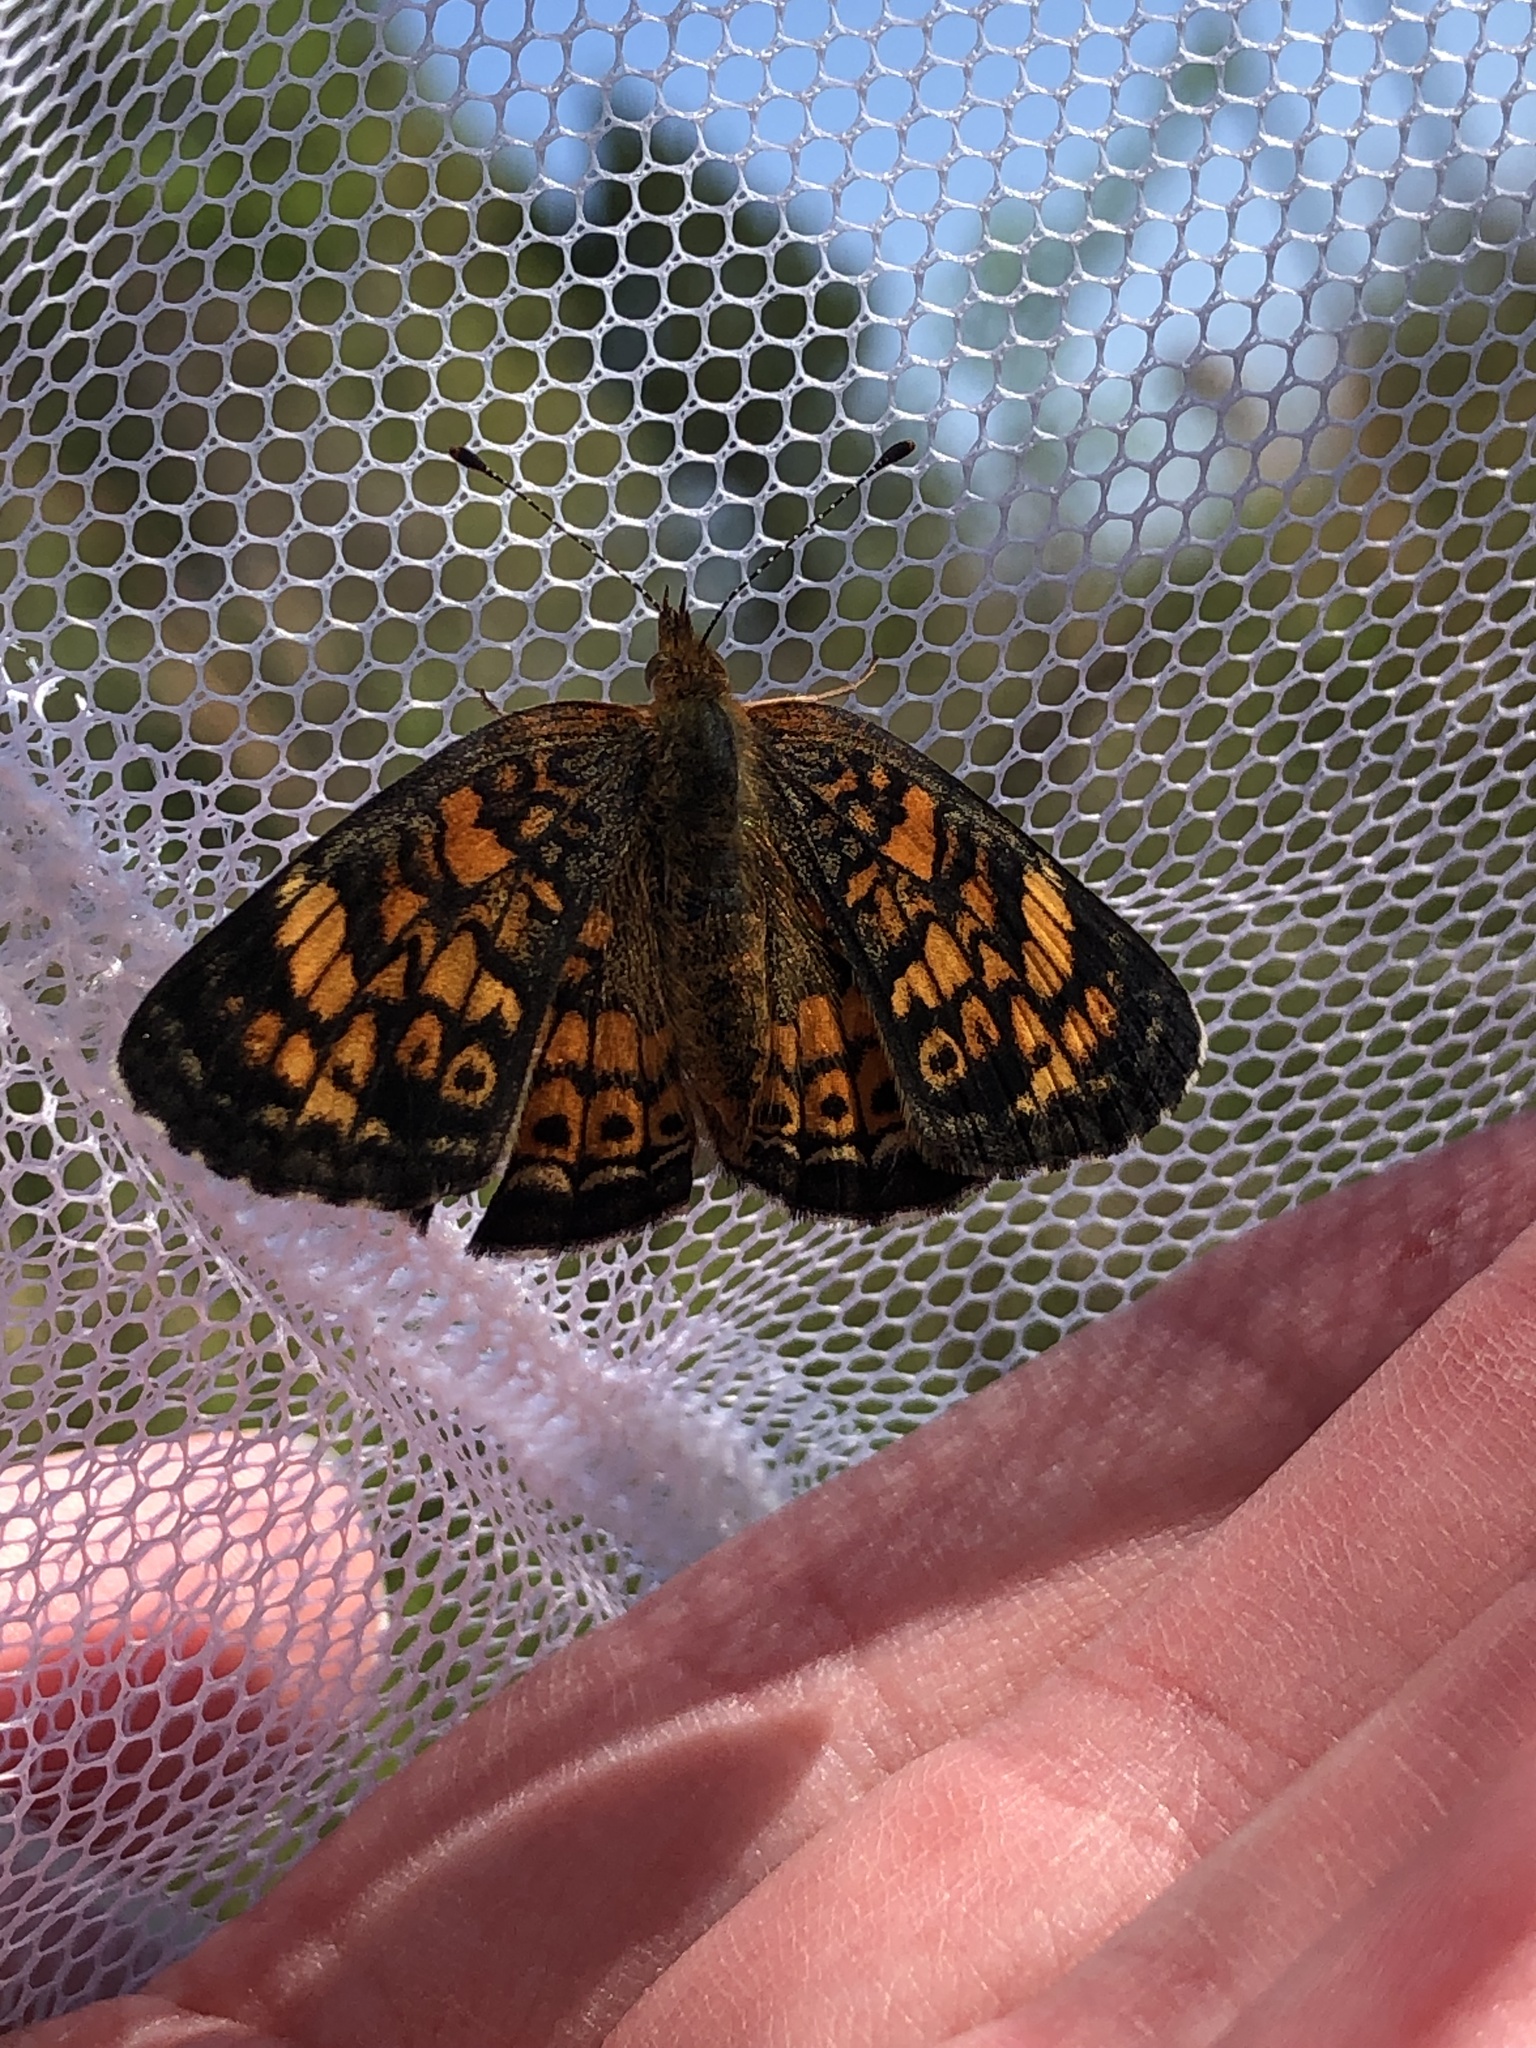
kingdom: Animalia
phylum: Arthropoda
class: Insecta
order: Lepidoptera
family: Nymphalidae
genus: Phyciodes
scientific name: Phyciodes tharos
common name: Pearl crescent
